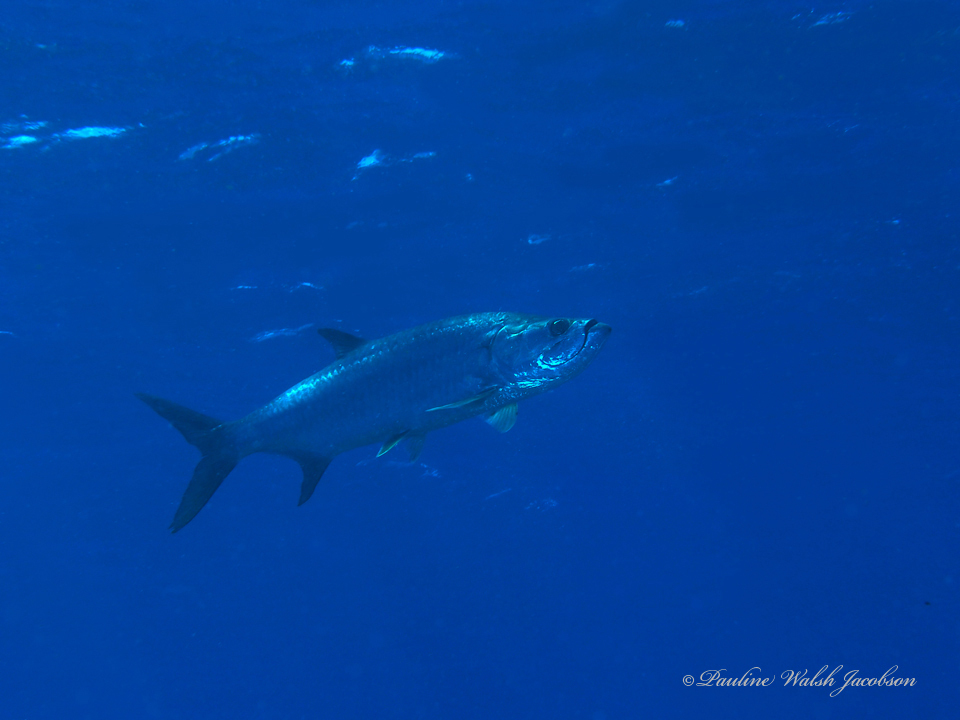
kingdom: Animalia
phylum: Chordata
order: Elopiformes
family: Megalopidae
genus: Megalops
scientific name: Megalops atlanticus
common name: Tarpon
